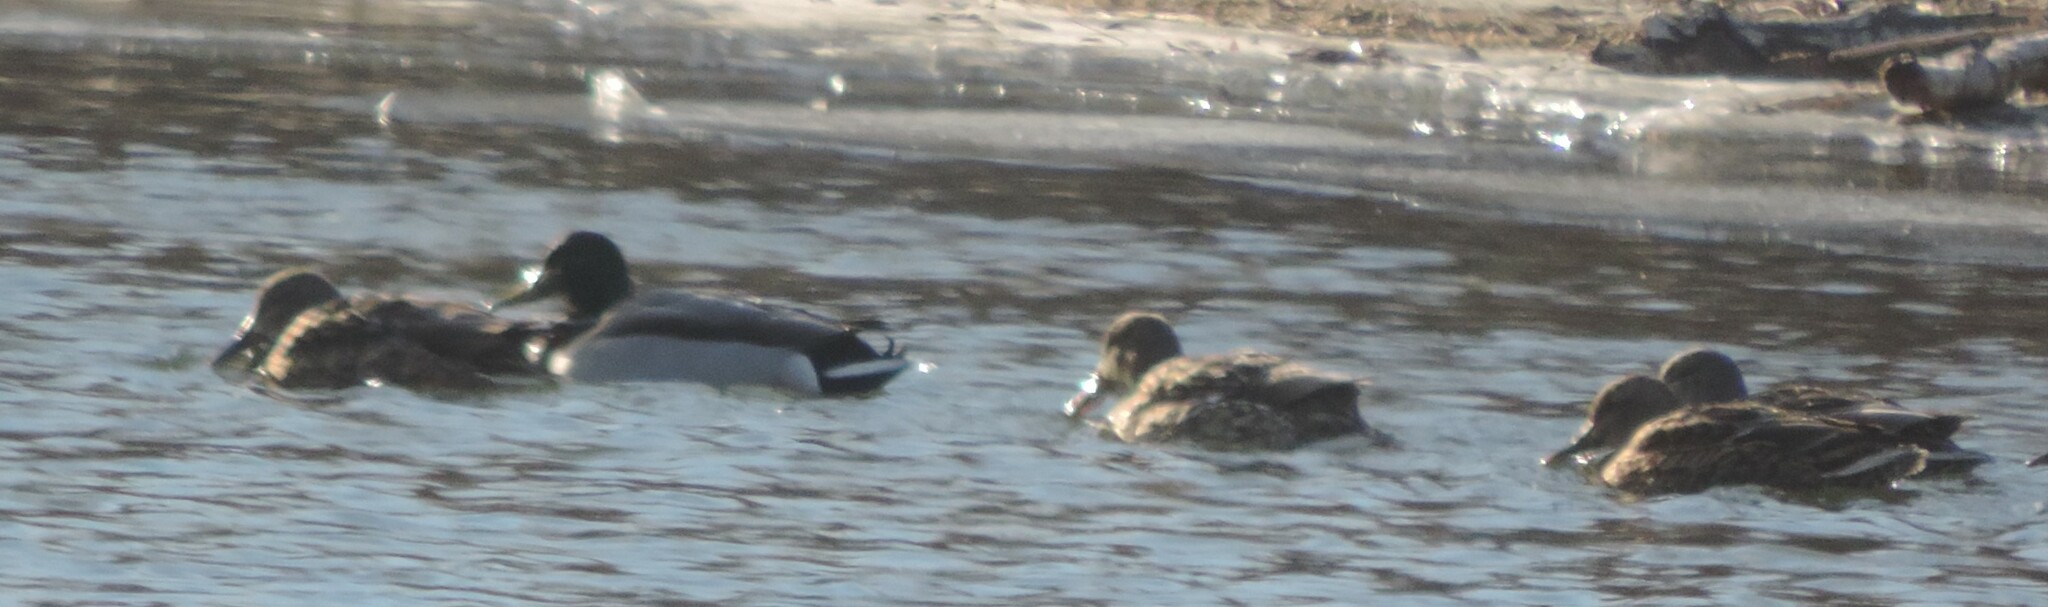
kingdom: Animalia
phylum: Chordata
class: Aves
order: Anseriformes
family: Anatidae
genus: Anas
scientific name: Anas platyrhynchos
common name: Mallard
